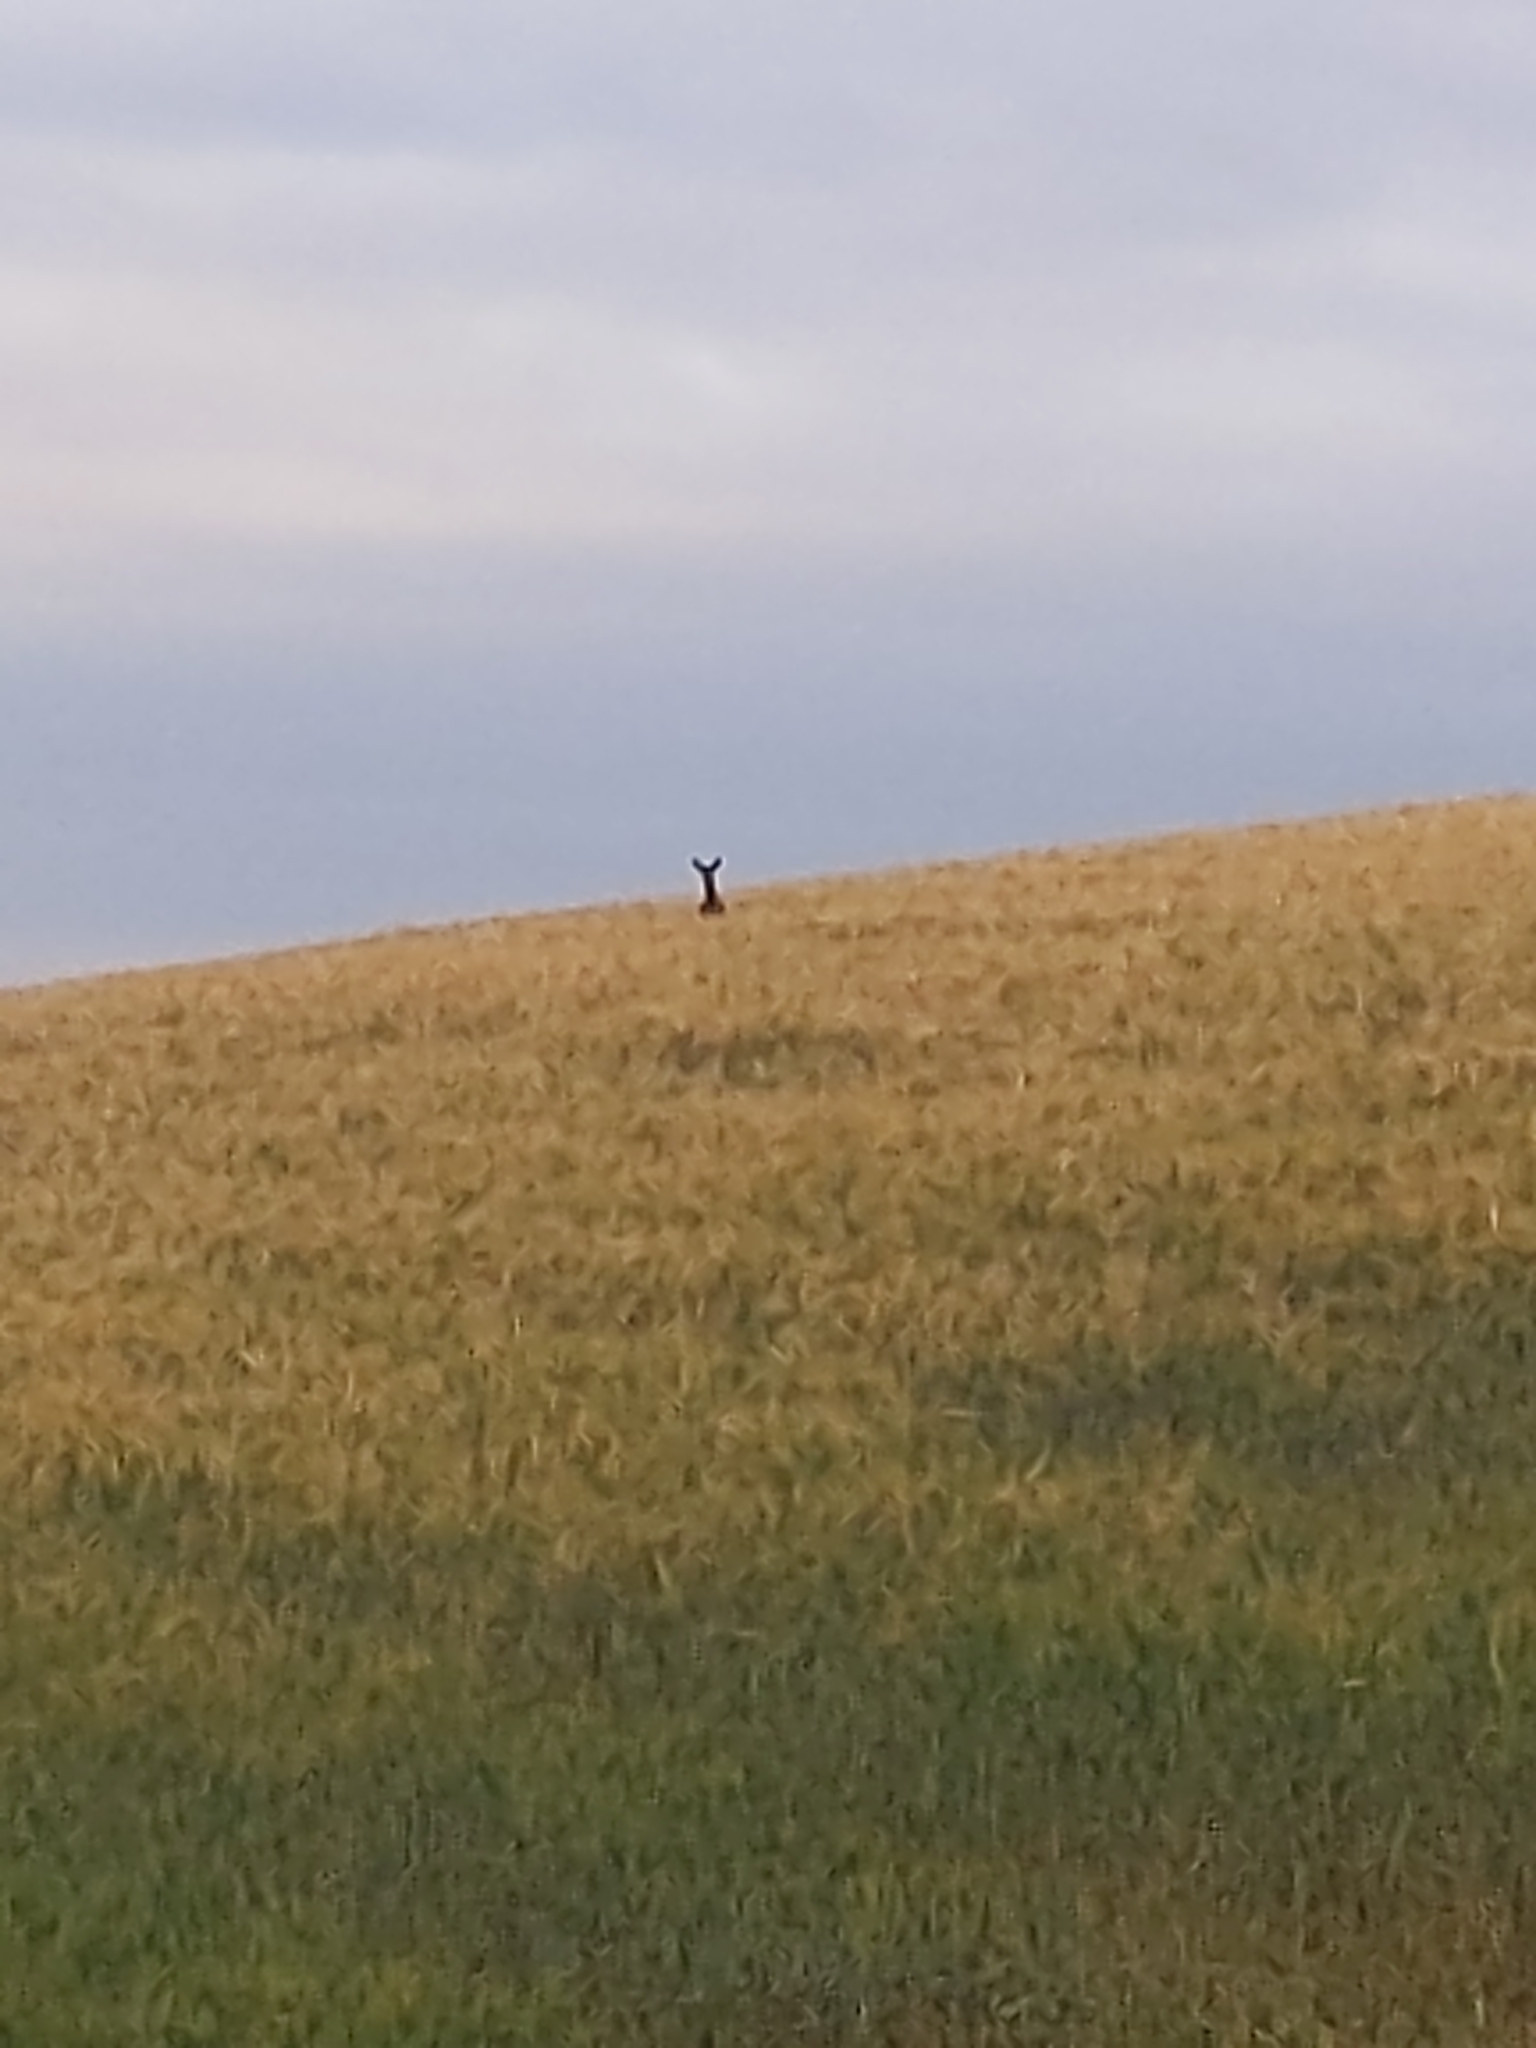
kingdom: Animalia
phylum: Chordata
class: Mammalia
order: Artiodactyla
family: Cervidae
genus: Capreolus
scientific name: Capreolus capreolus
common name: Western roe deer
